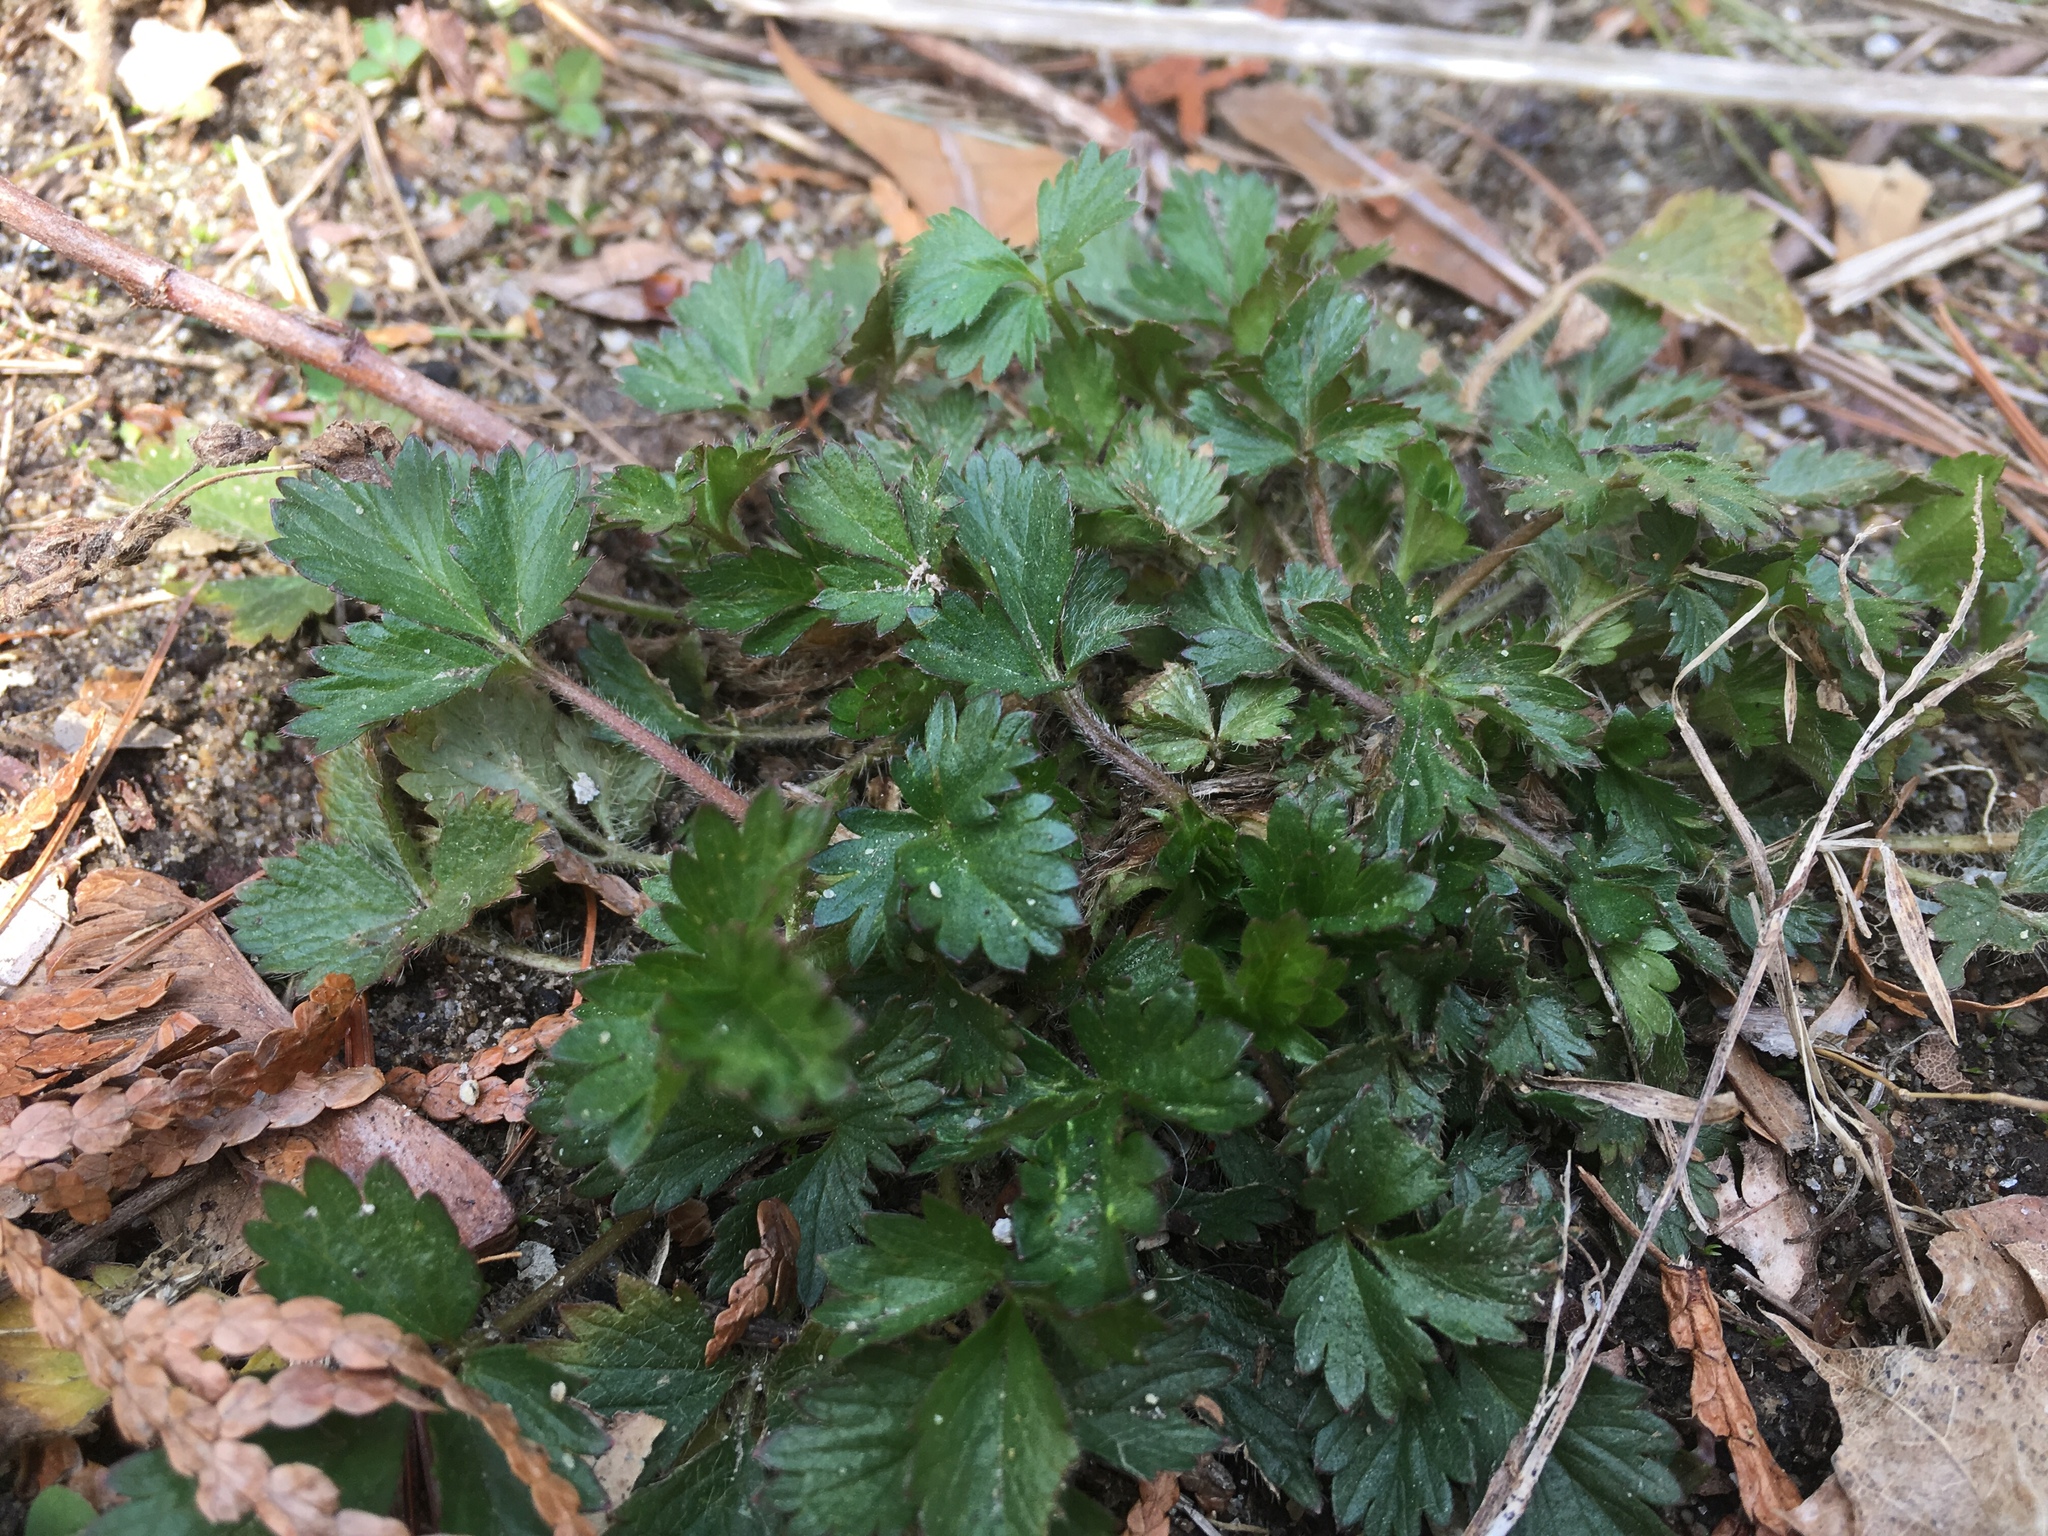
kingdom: Plantae
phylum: Tracheophyta
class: Magnoliopsida
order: Rosales
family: Rosaceae
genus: Potentilla
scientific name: Potentilla indica
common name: Yellow-flowered strawberry
